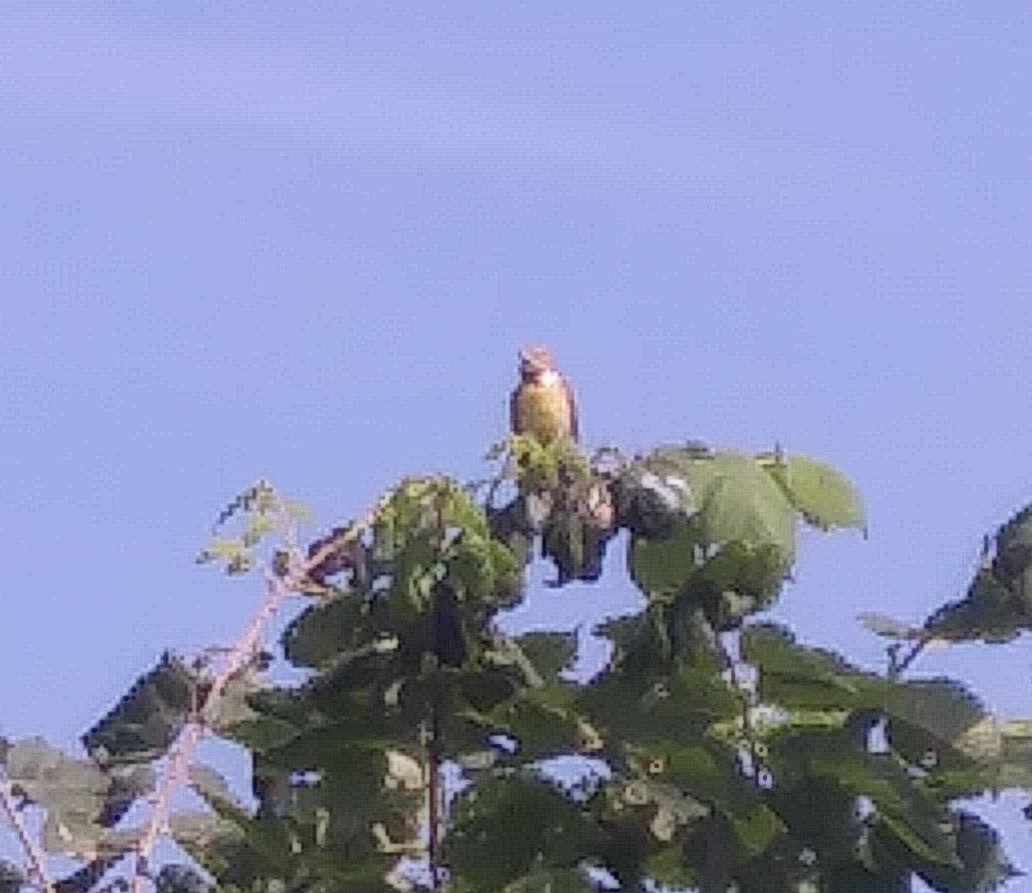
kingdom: Animalia
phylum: Chordata
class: Aves
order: Passeriformes
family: Cardinalidae
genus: Spiza
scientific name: Spiza americana
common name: Dickcissel
